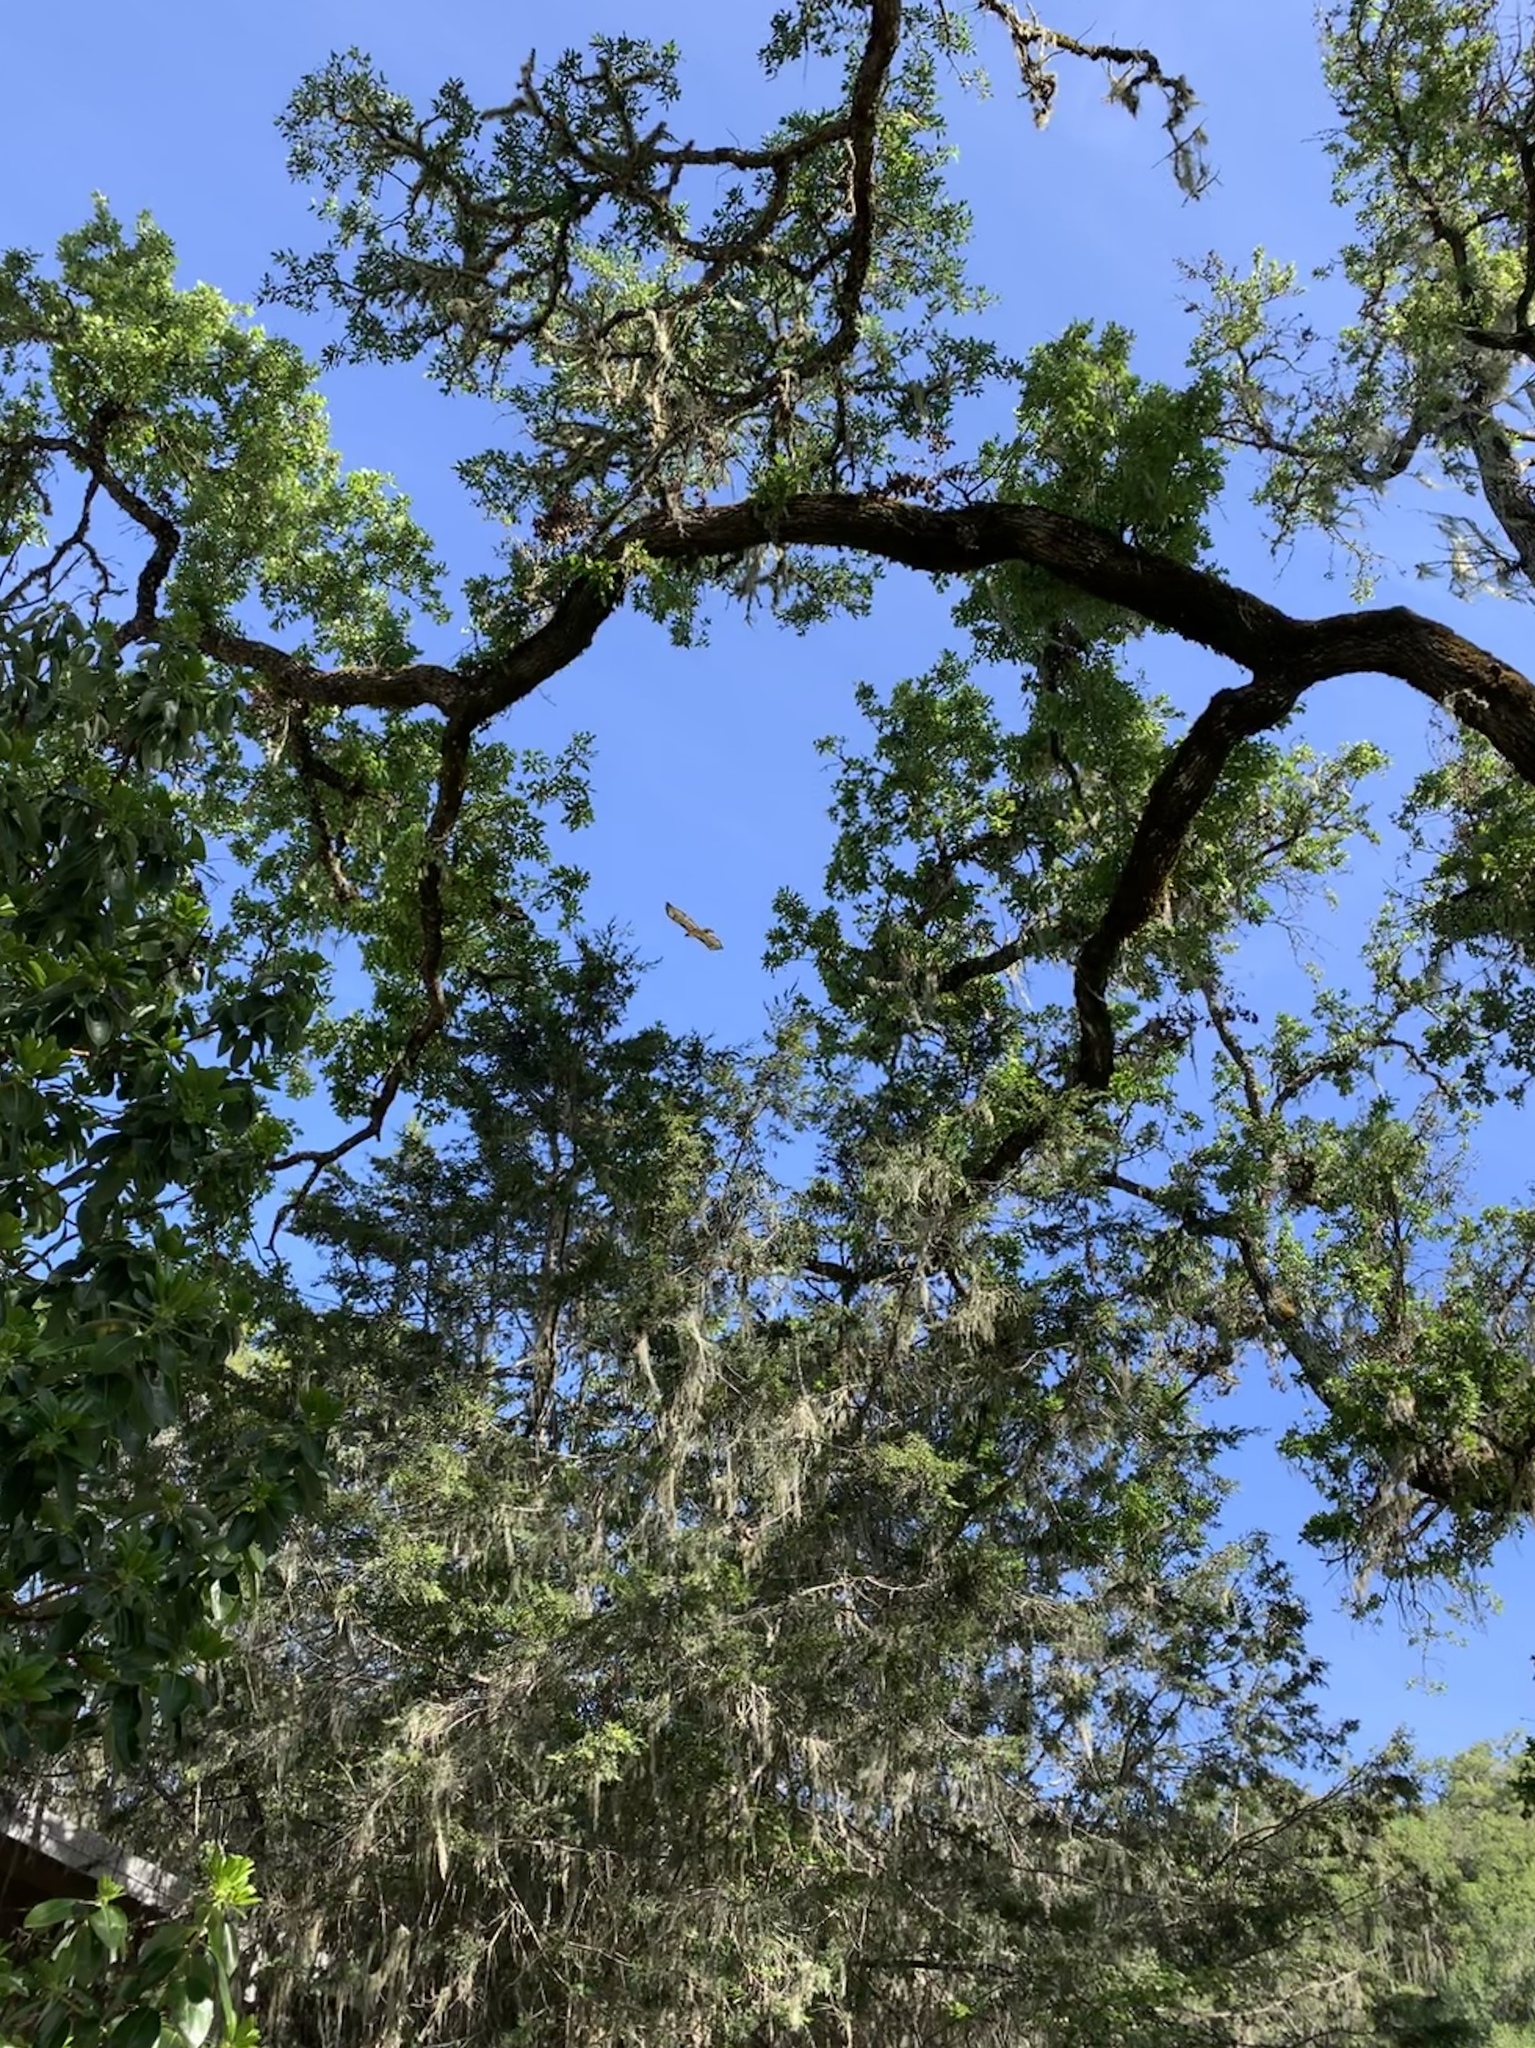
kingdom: Animalia
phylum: Chordata
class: Aves
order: Accipitriformes
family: Accipitridae
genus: Buteo
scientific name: Buteo jamaicensis
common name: Red-tailed hawk
